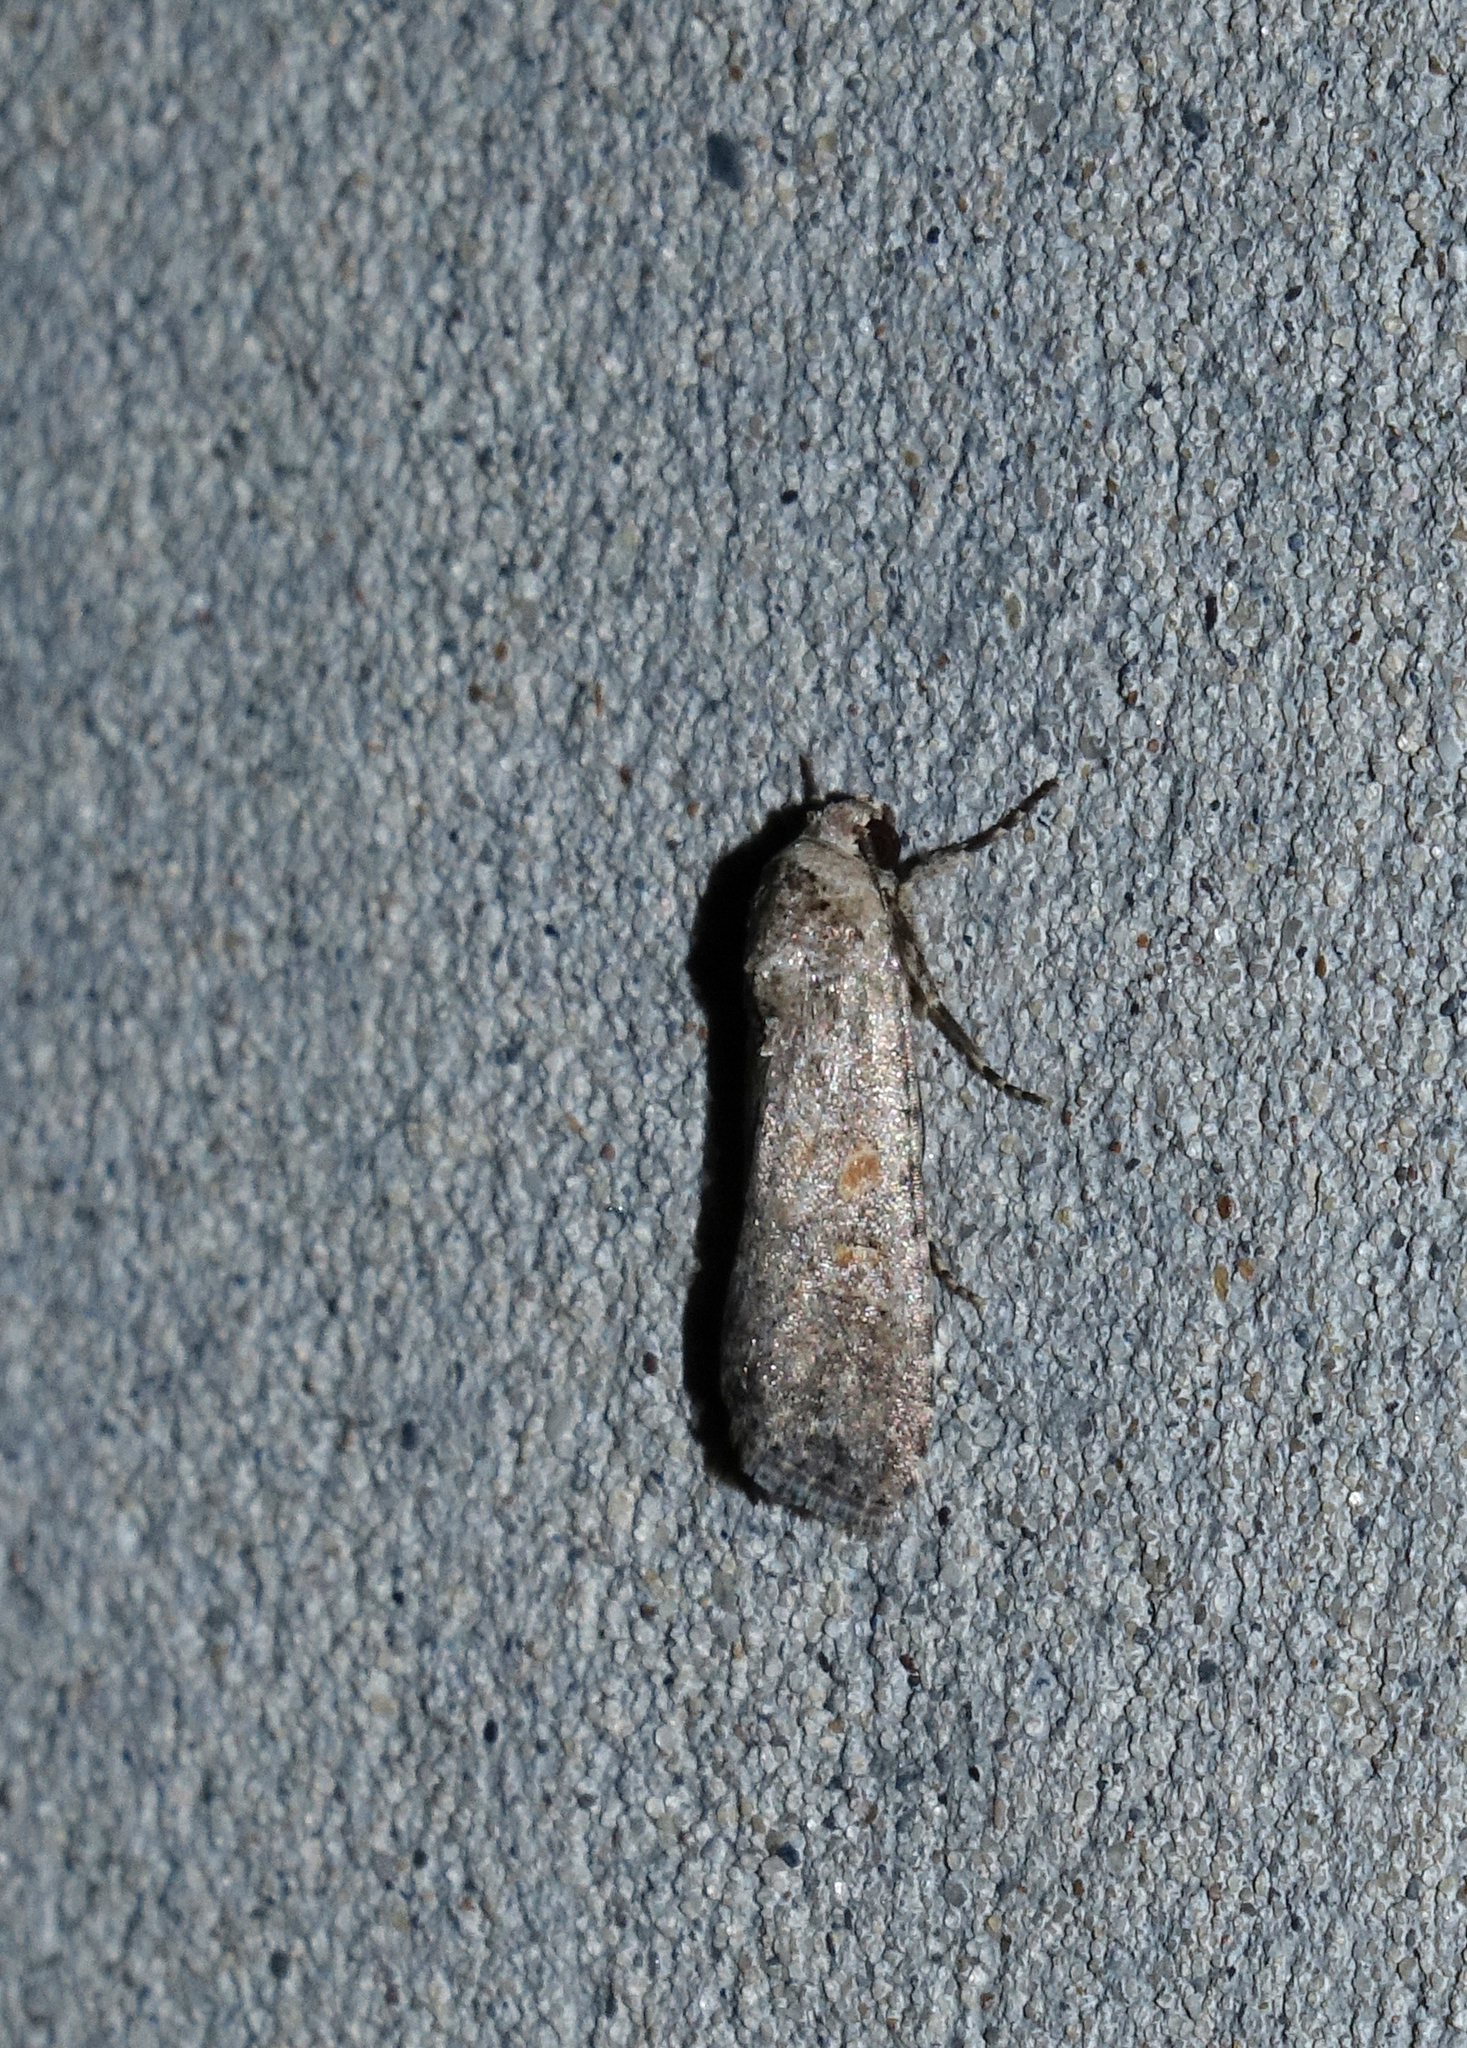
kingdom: Animalia
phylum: Arthropoda
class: Insecta
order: Lepidoptera
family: Noctuidae
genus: Spodoptera
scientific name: Spodoptera exigua
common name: Beet armyworm
